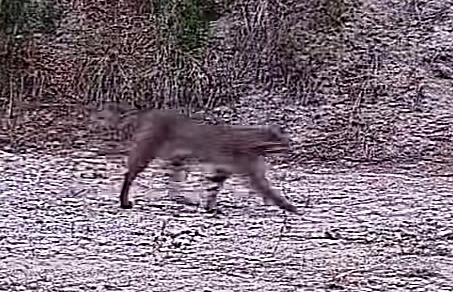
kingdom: Animalia
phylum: Chordata
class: Mammalia
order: Carnivora
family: Felidae
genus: Lynx
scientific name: Lynx rufus
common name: Bobcat
